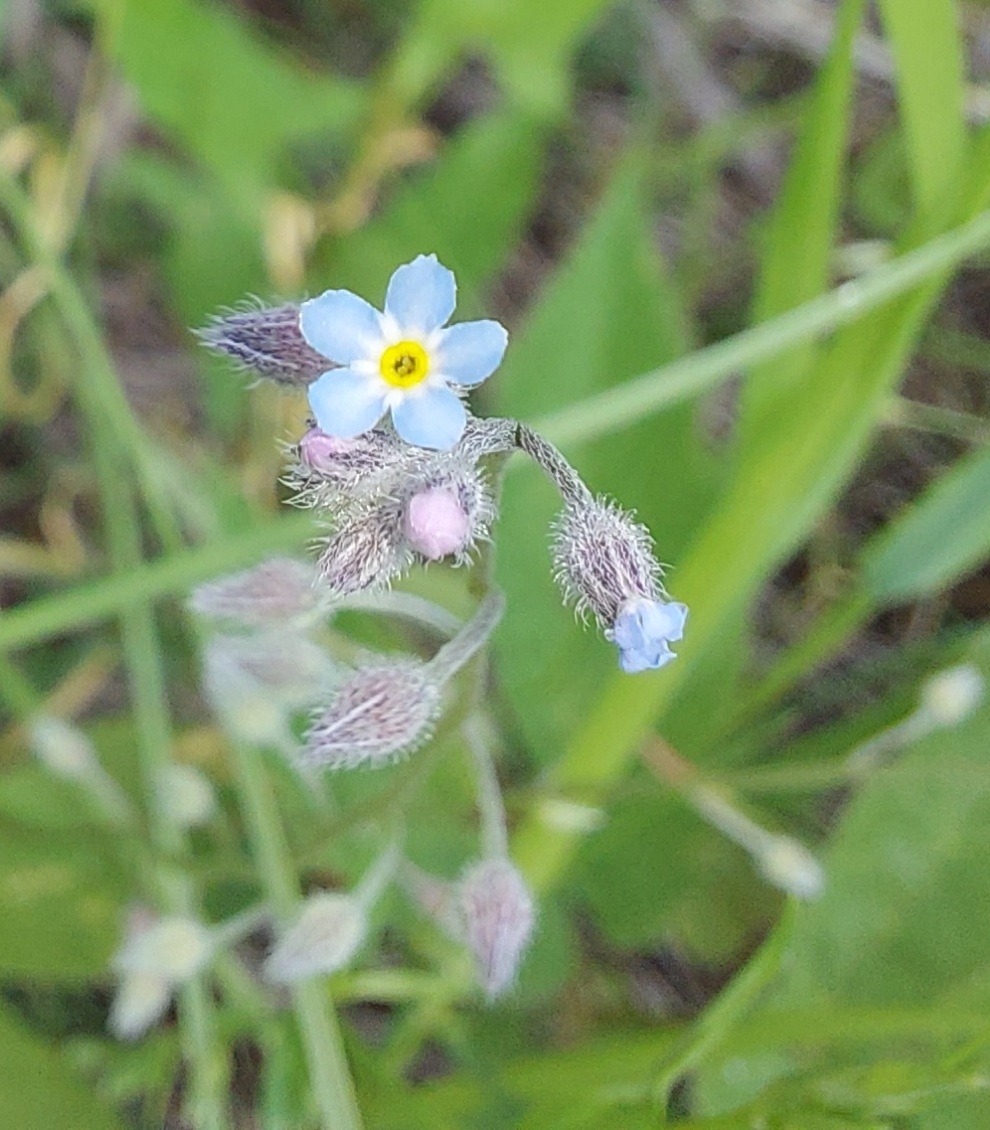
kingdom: Plantae
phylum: Tracheophyta
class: Magnoliopsida
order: Boraginales
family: Boraginaceae
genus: Myosotis
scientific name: Myosotis arvensis
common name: Field forget-me-not
